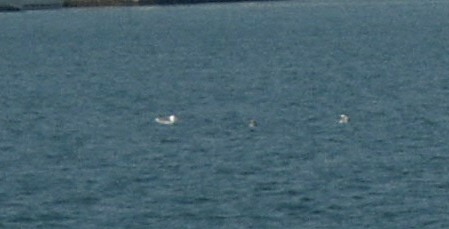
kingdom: Animalia
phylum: Chordata
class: Aves
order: Charadriiformes
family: Laridae
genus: Larus
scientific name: Larus michahellis
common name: Yellow-legged gull
